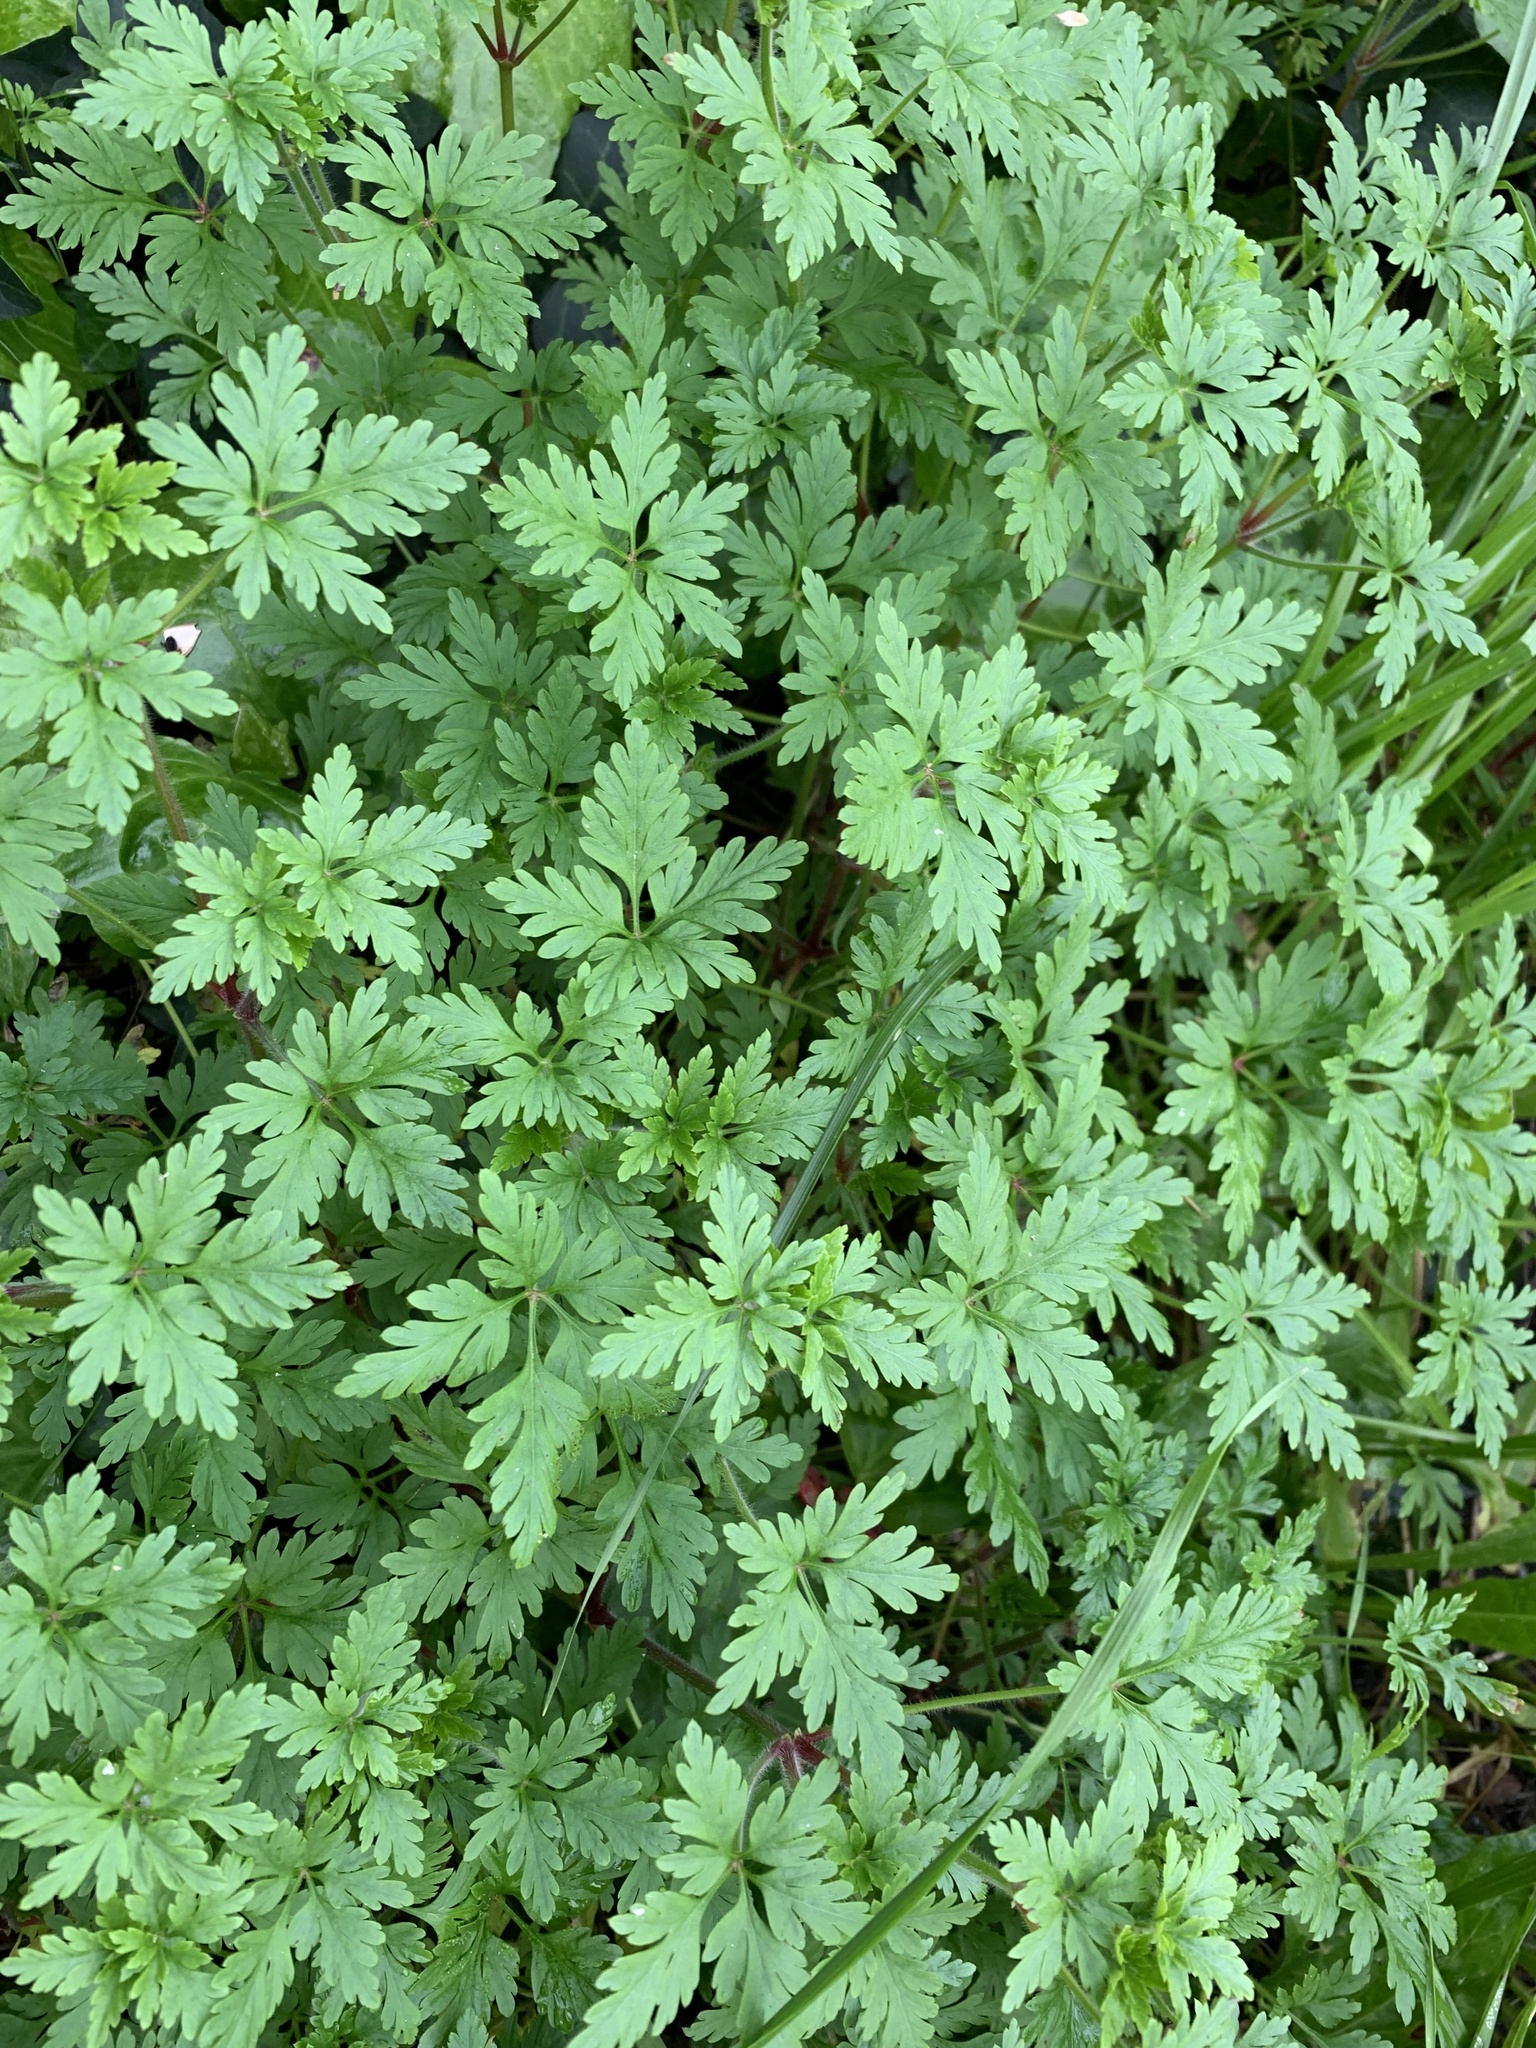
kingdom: Plantae
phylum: Tracheophyta
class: Magnoliopsida
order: Geraniales
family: Geraniaceae
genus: Geranium
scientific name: Geranium purpureum
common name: Little-robin
